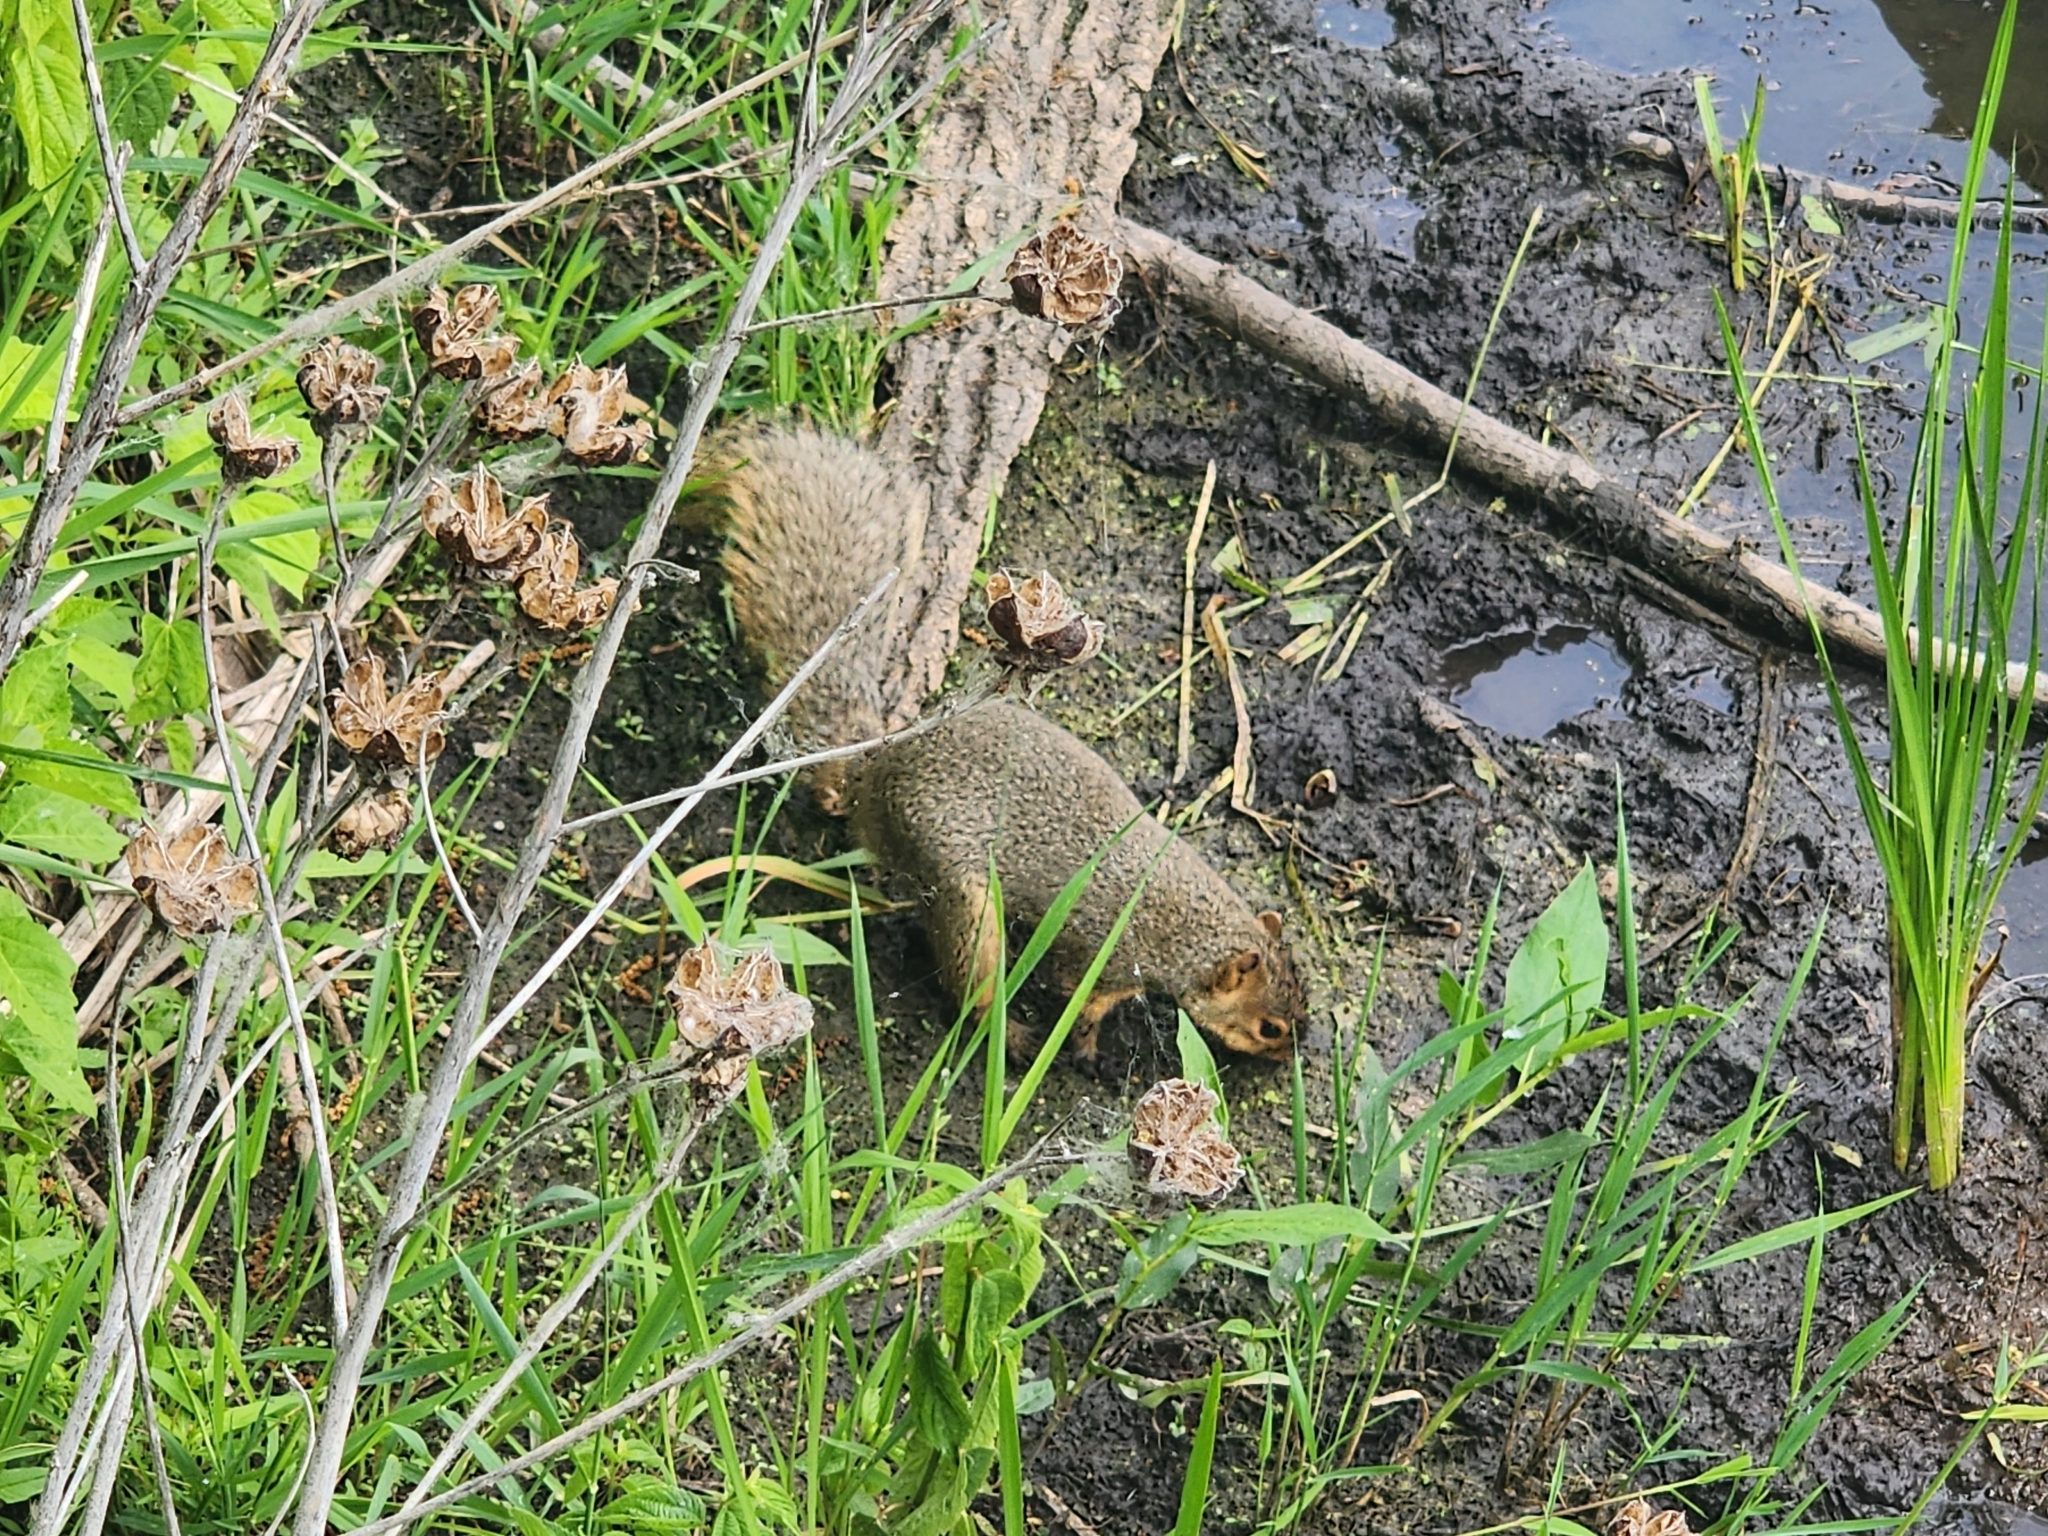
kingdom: Animalia
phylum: Chordata
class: Mammalia
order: Rodentia
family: Sciuridae
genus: Sciurus
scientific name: Sciurus niger
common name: Fox squirrel
